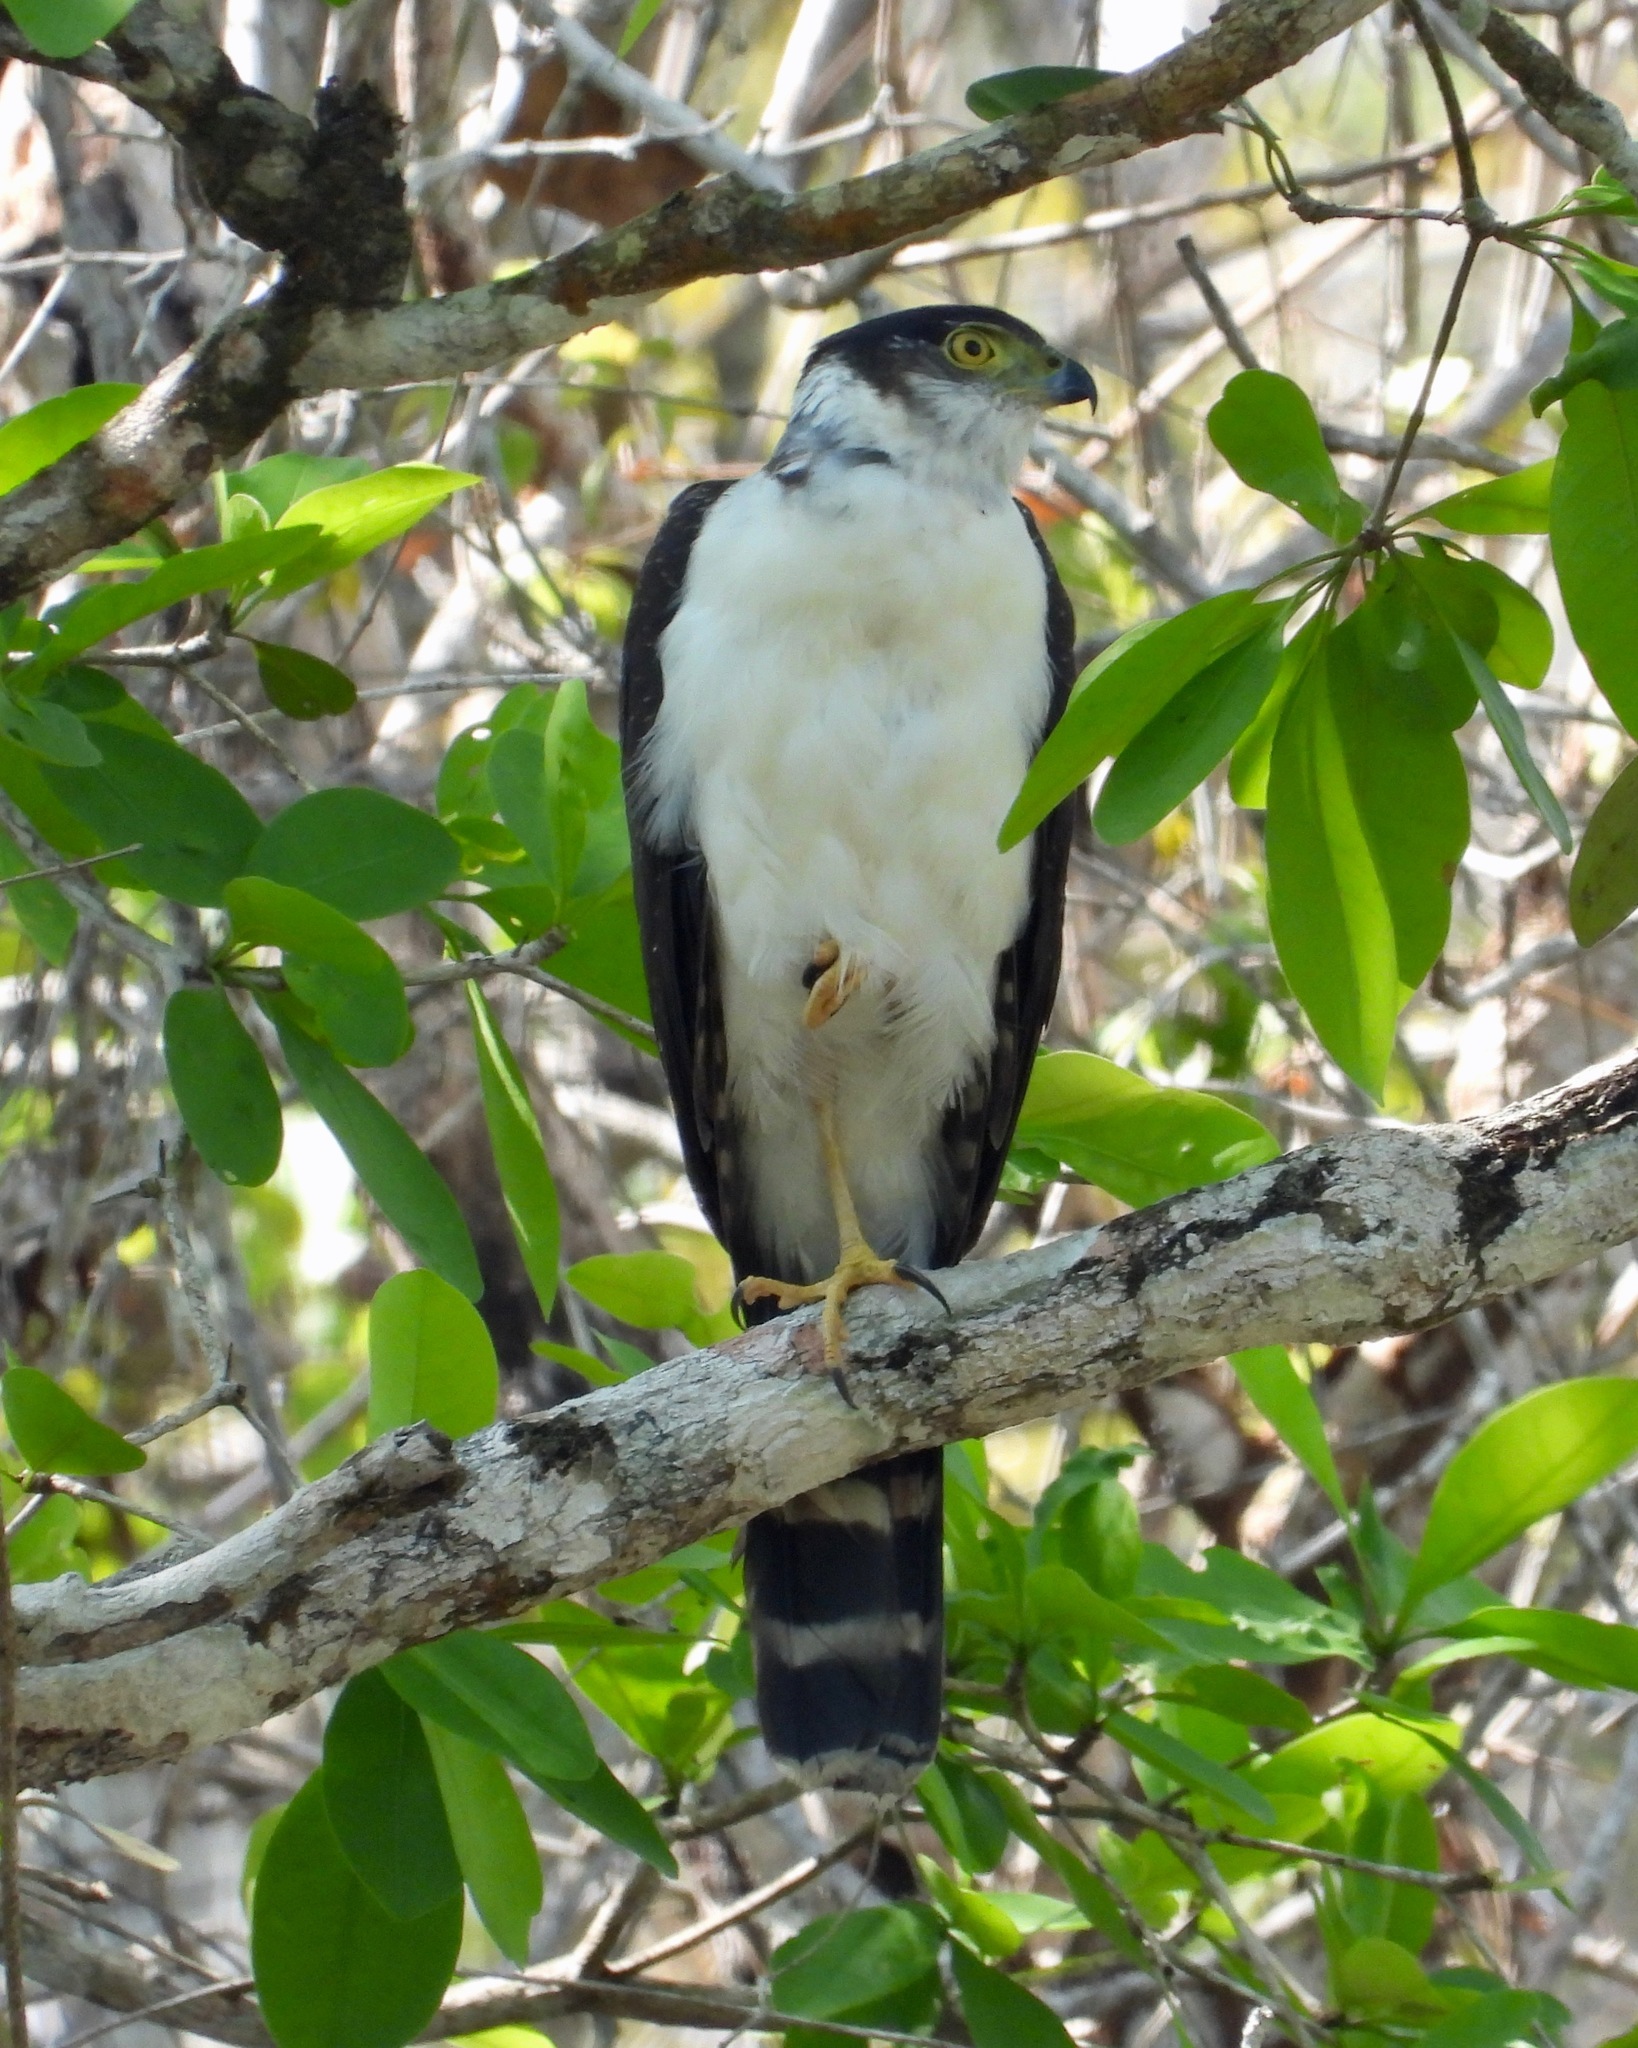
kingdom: Animalia
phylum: Chordata
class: Aves
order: Accipitriformes
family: Accipitridae
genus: Accipiter
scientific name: Accipiter bicolor
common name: Bicolored hawk
